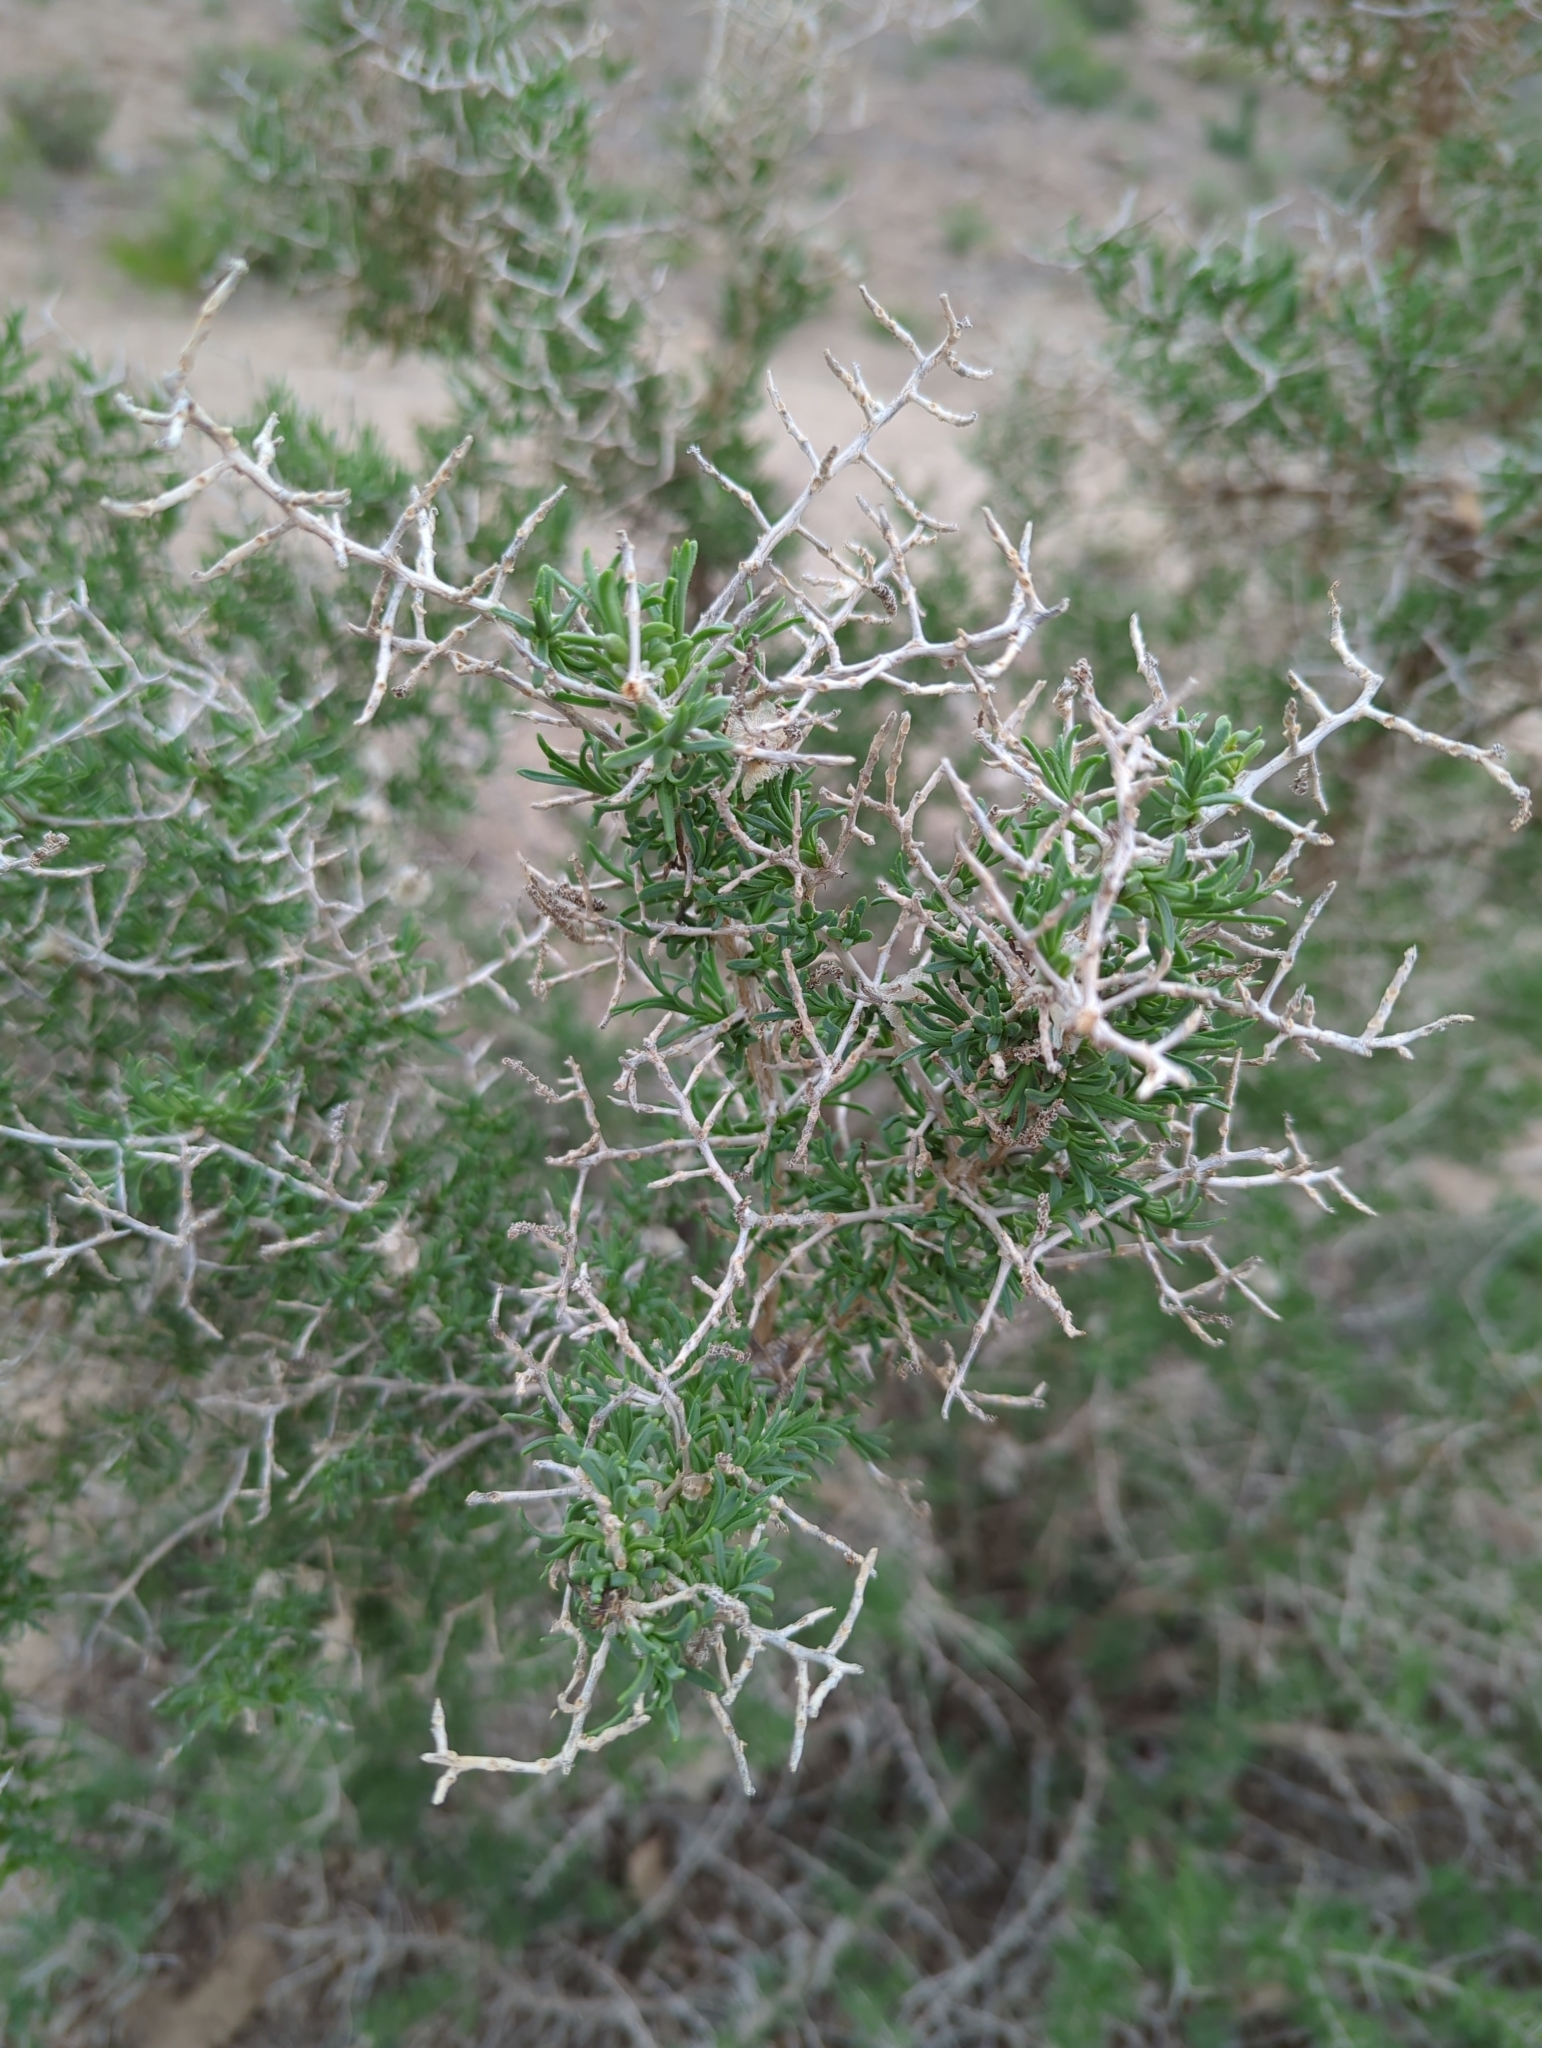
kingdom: Plantae
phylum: Tracheophyta
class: Magnoliopsida
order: Caryophyllales
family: Sarcobataceae
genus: Sarcobatus
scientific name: Sarcobatus vermiculatus
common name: Greasewood
